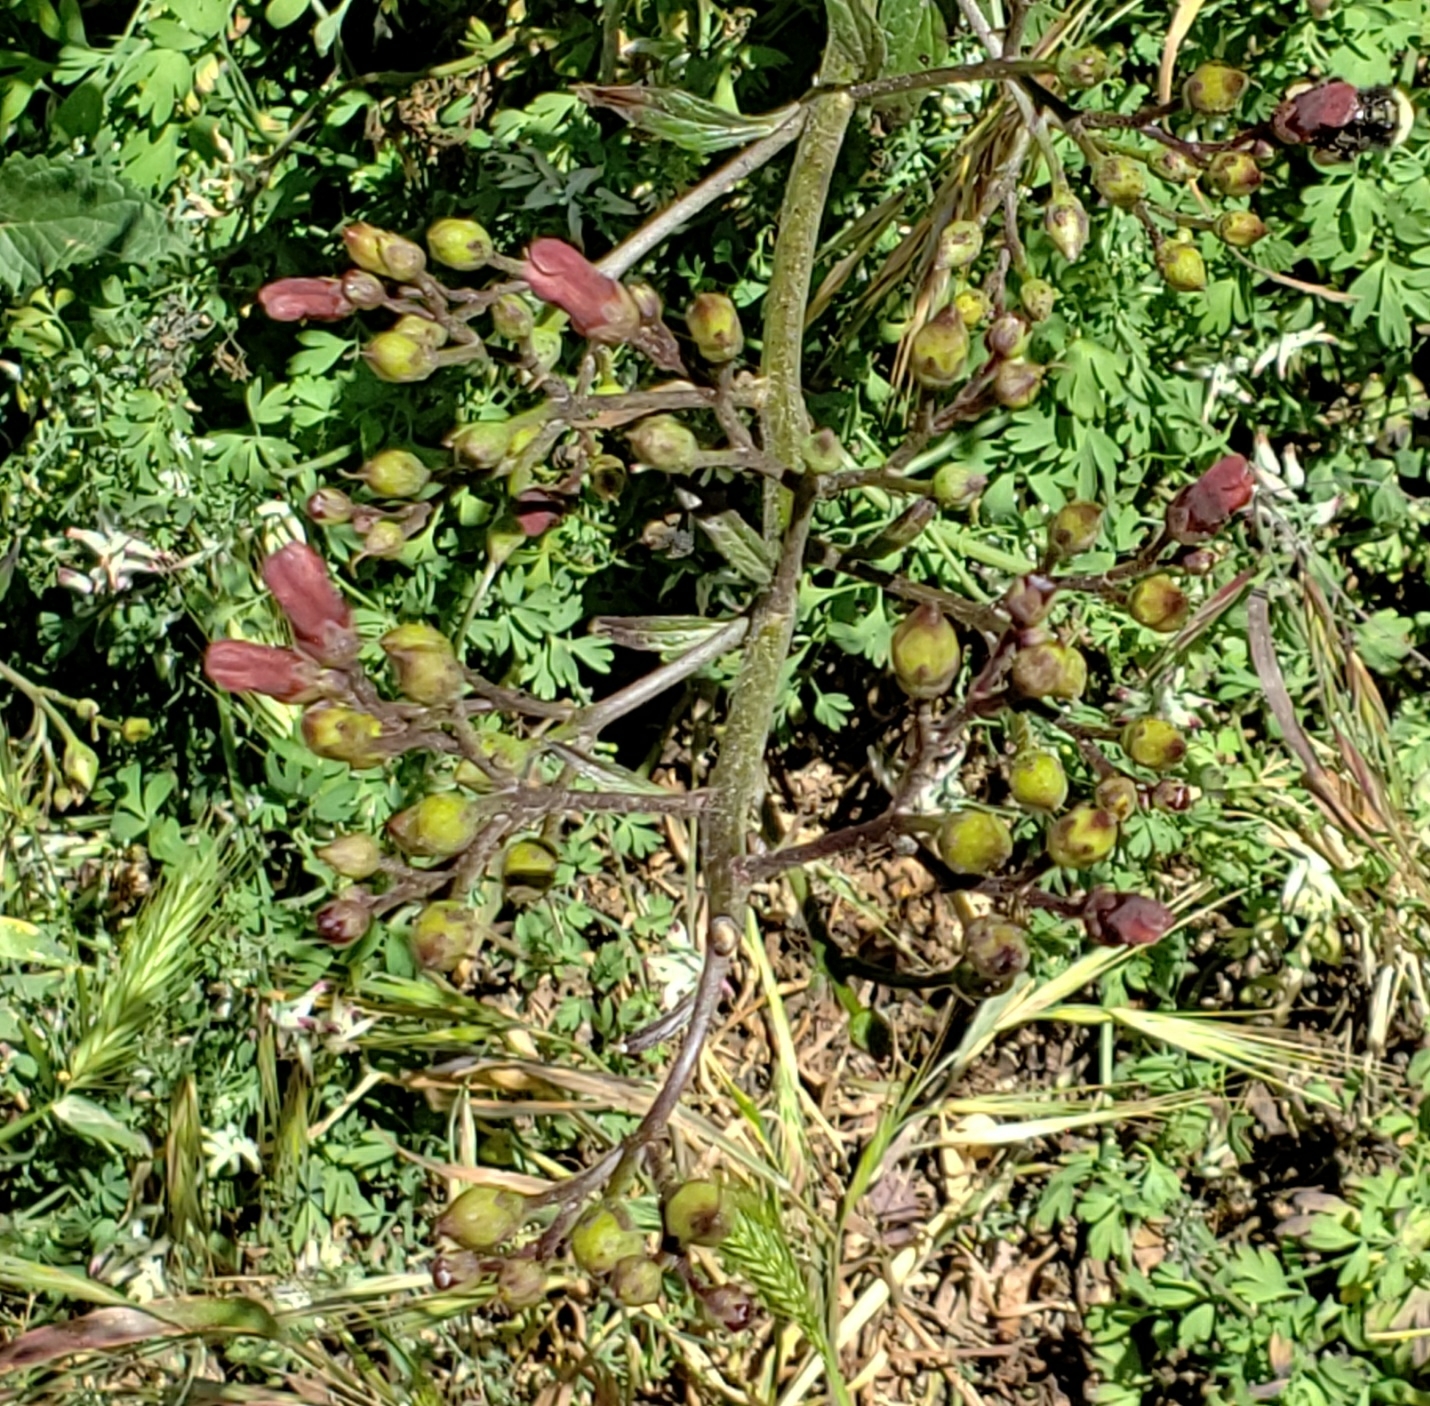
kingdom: Plantae
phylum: Tracheophyta
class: Magnoliopsida
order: Lamiales
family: Scrophulariaceae
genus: Scrophularia
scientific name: Scrophularia californica
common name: California figwort
